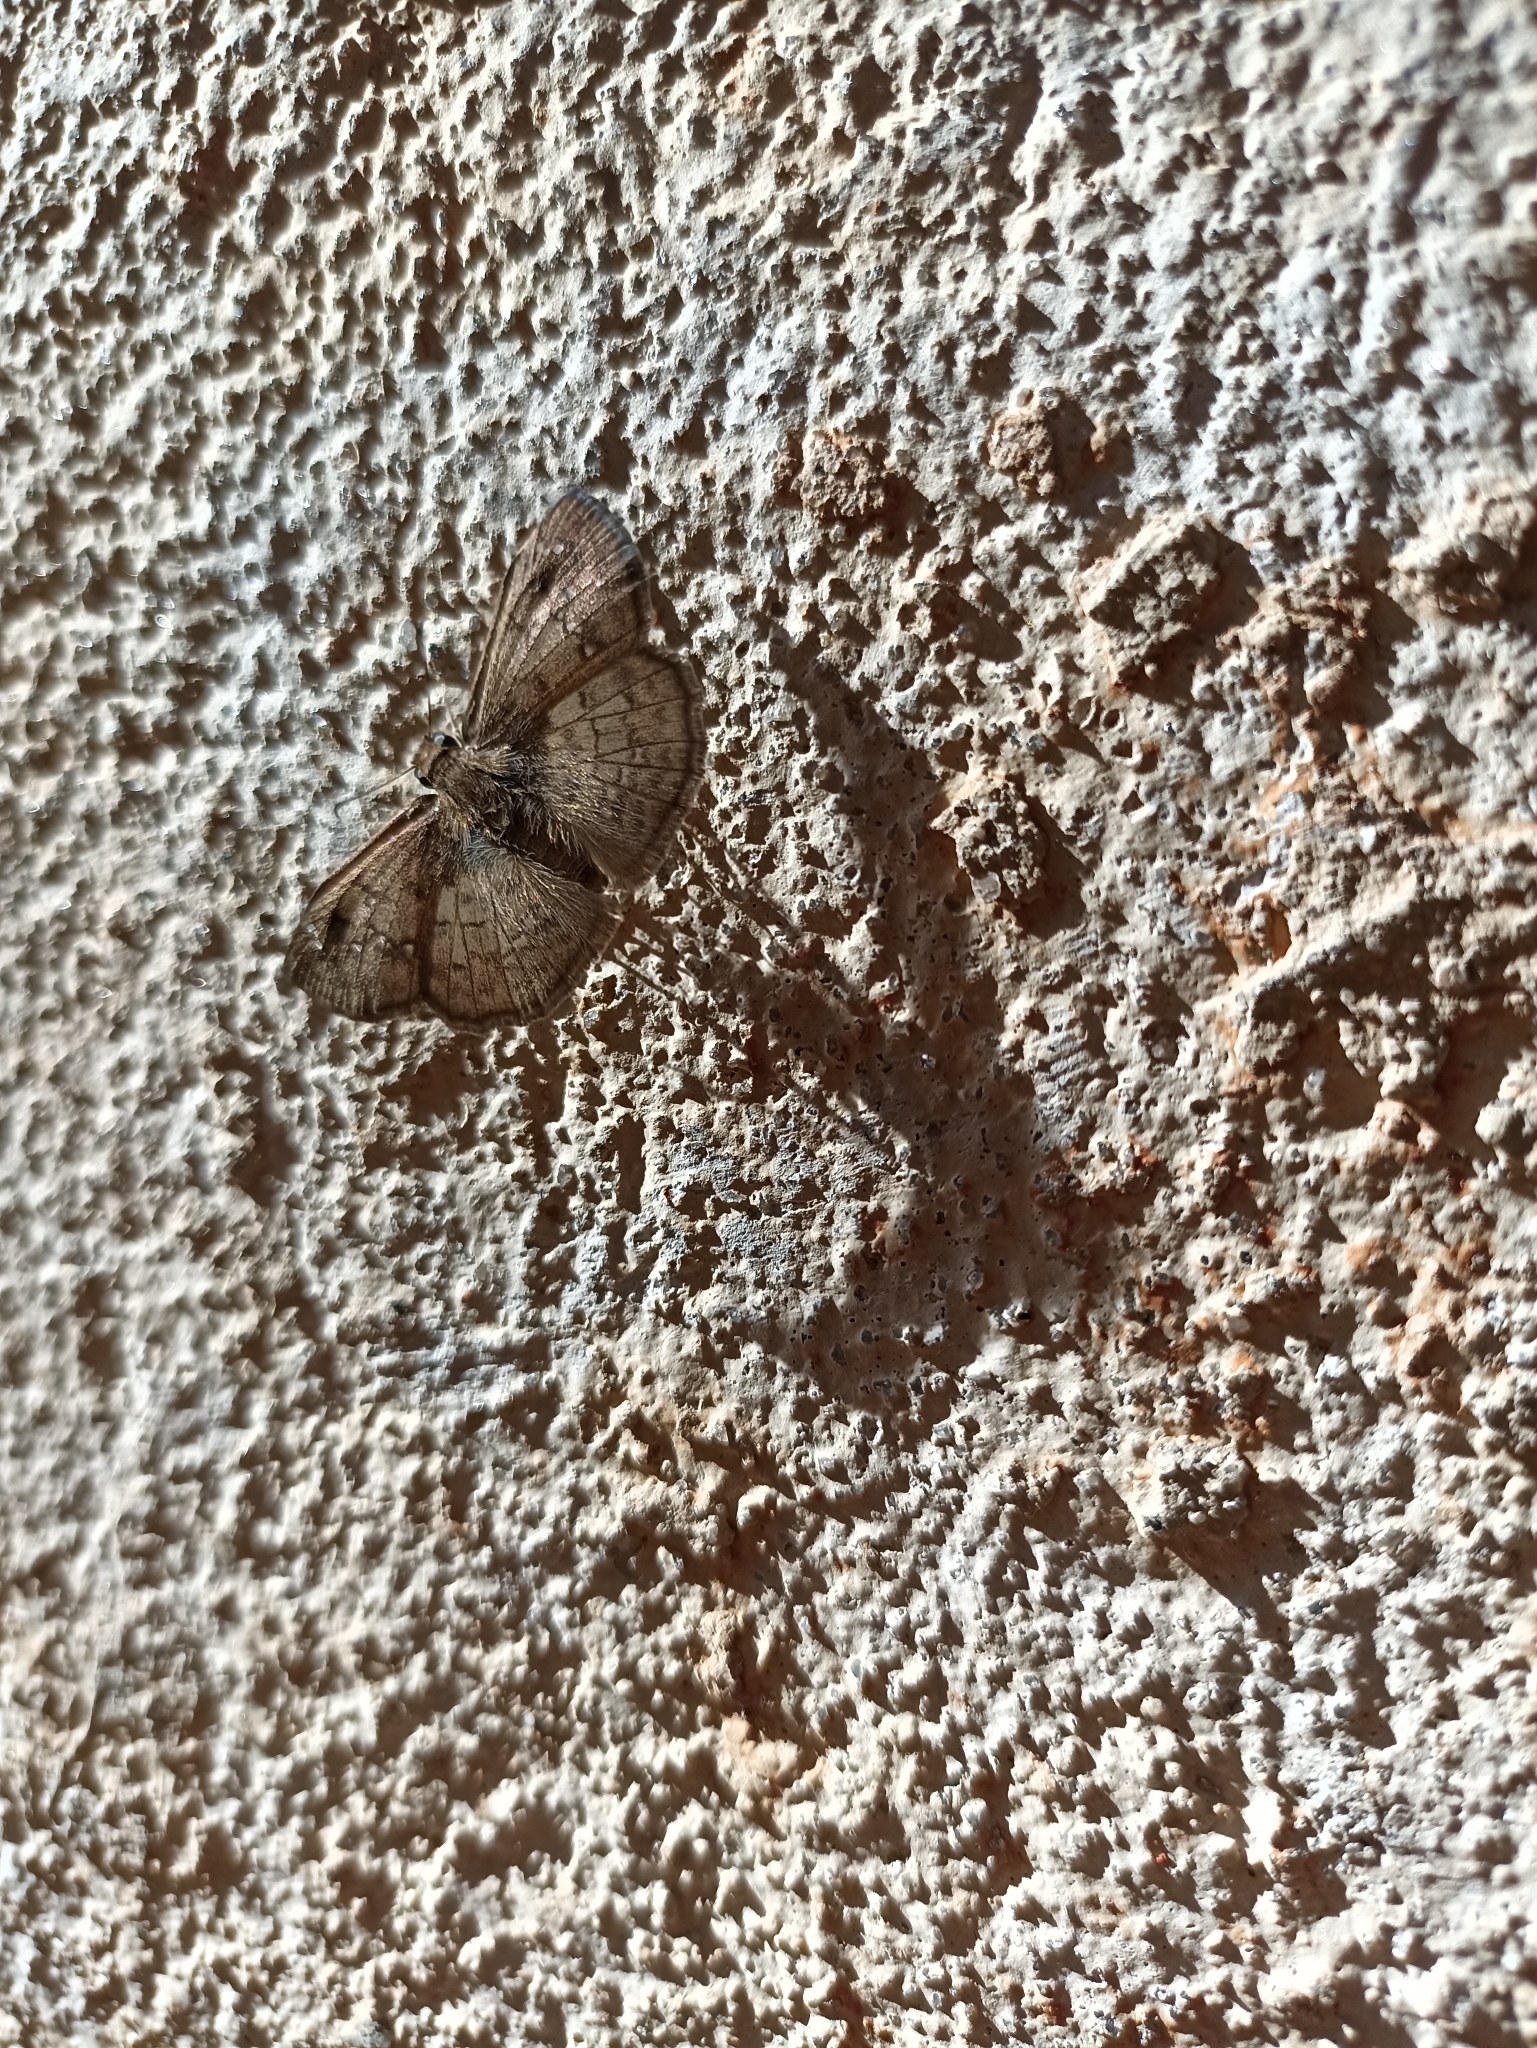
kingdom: Animalia
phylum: Arthropoda
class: Insecta
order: Lepidoptera
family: Hesperiidae
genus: Canesia
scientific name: Canesia
